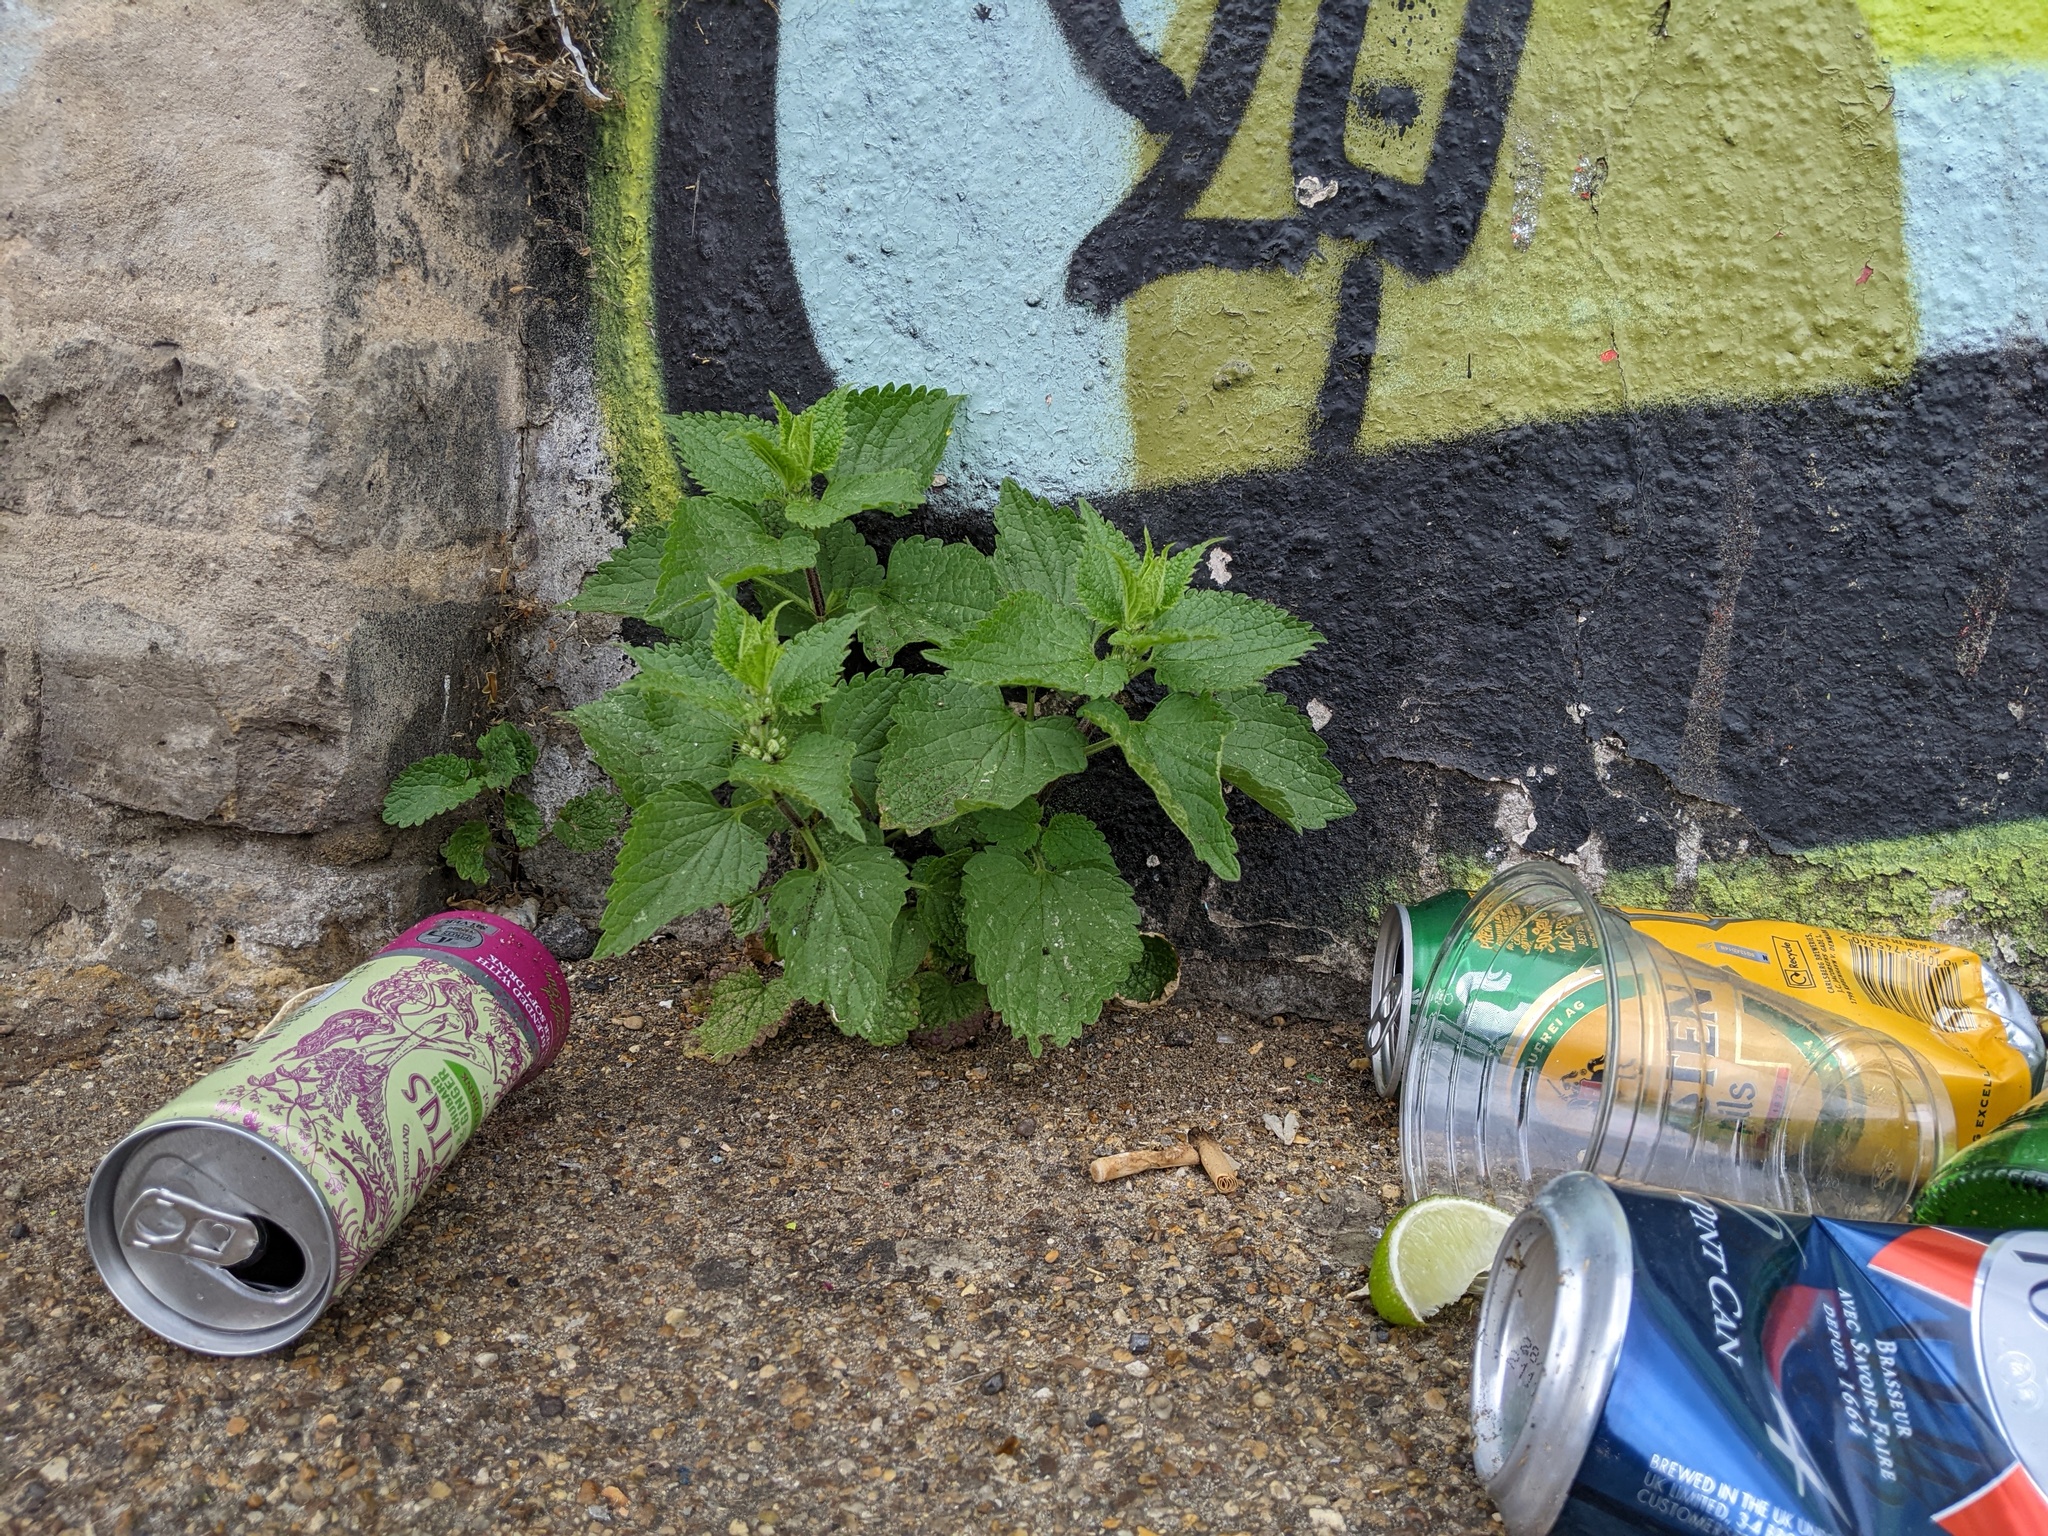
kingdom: Plantae
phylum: Tracheophyta
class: Magnoliopsida
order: Lamiales
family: Lamiaceae
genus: Lamium
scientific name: Lamium album
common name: White dead-nettle
